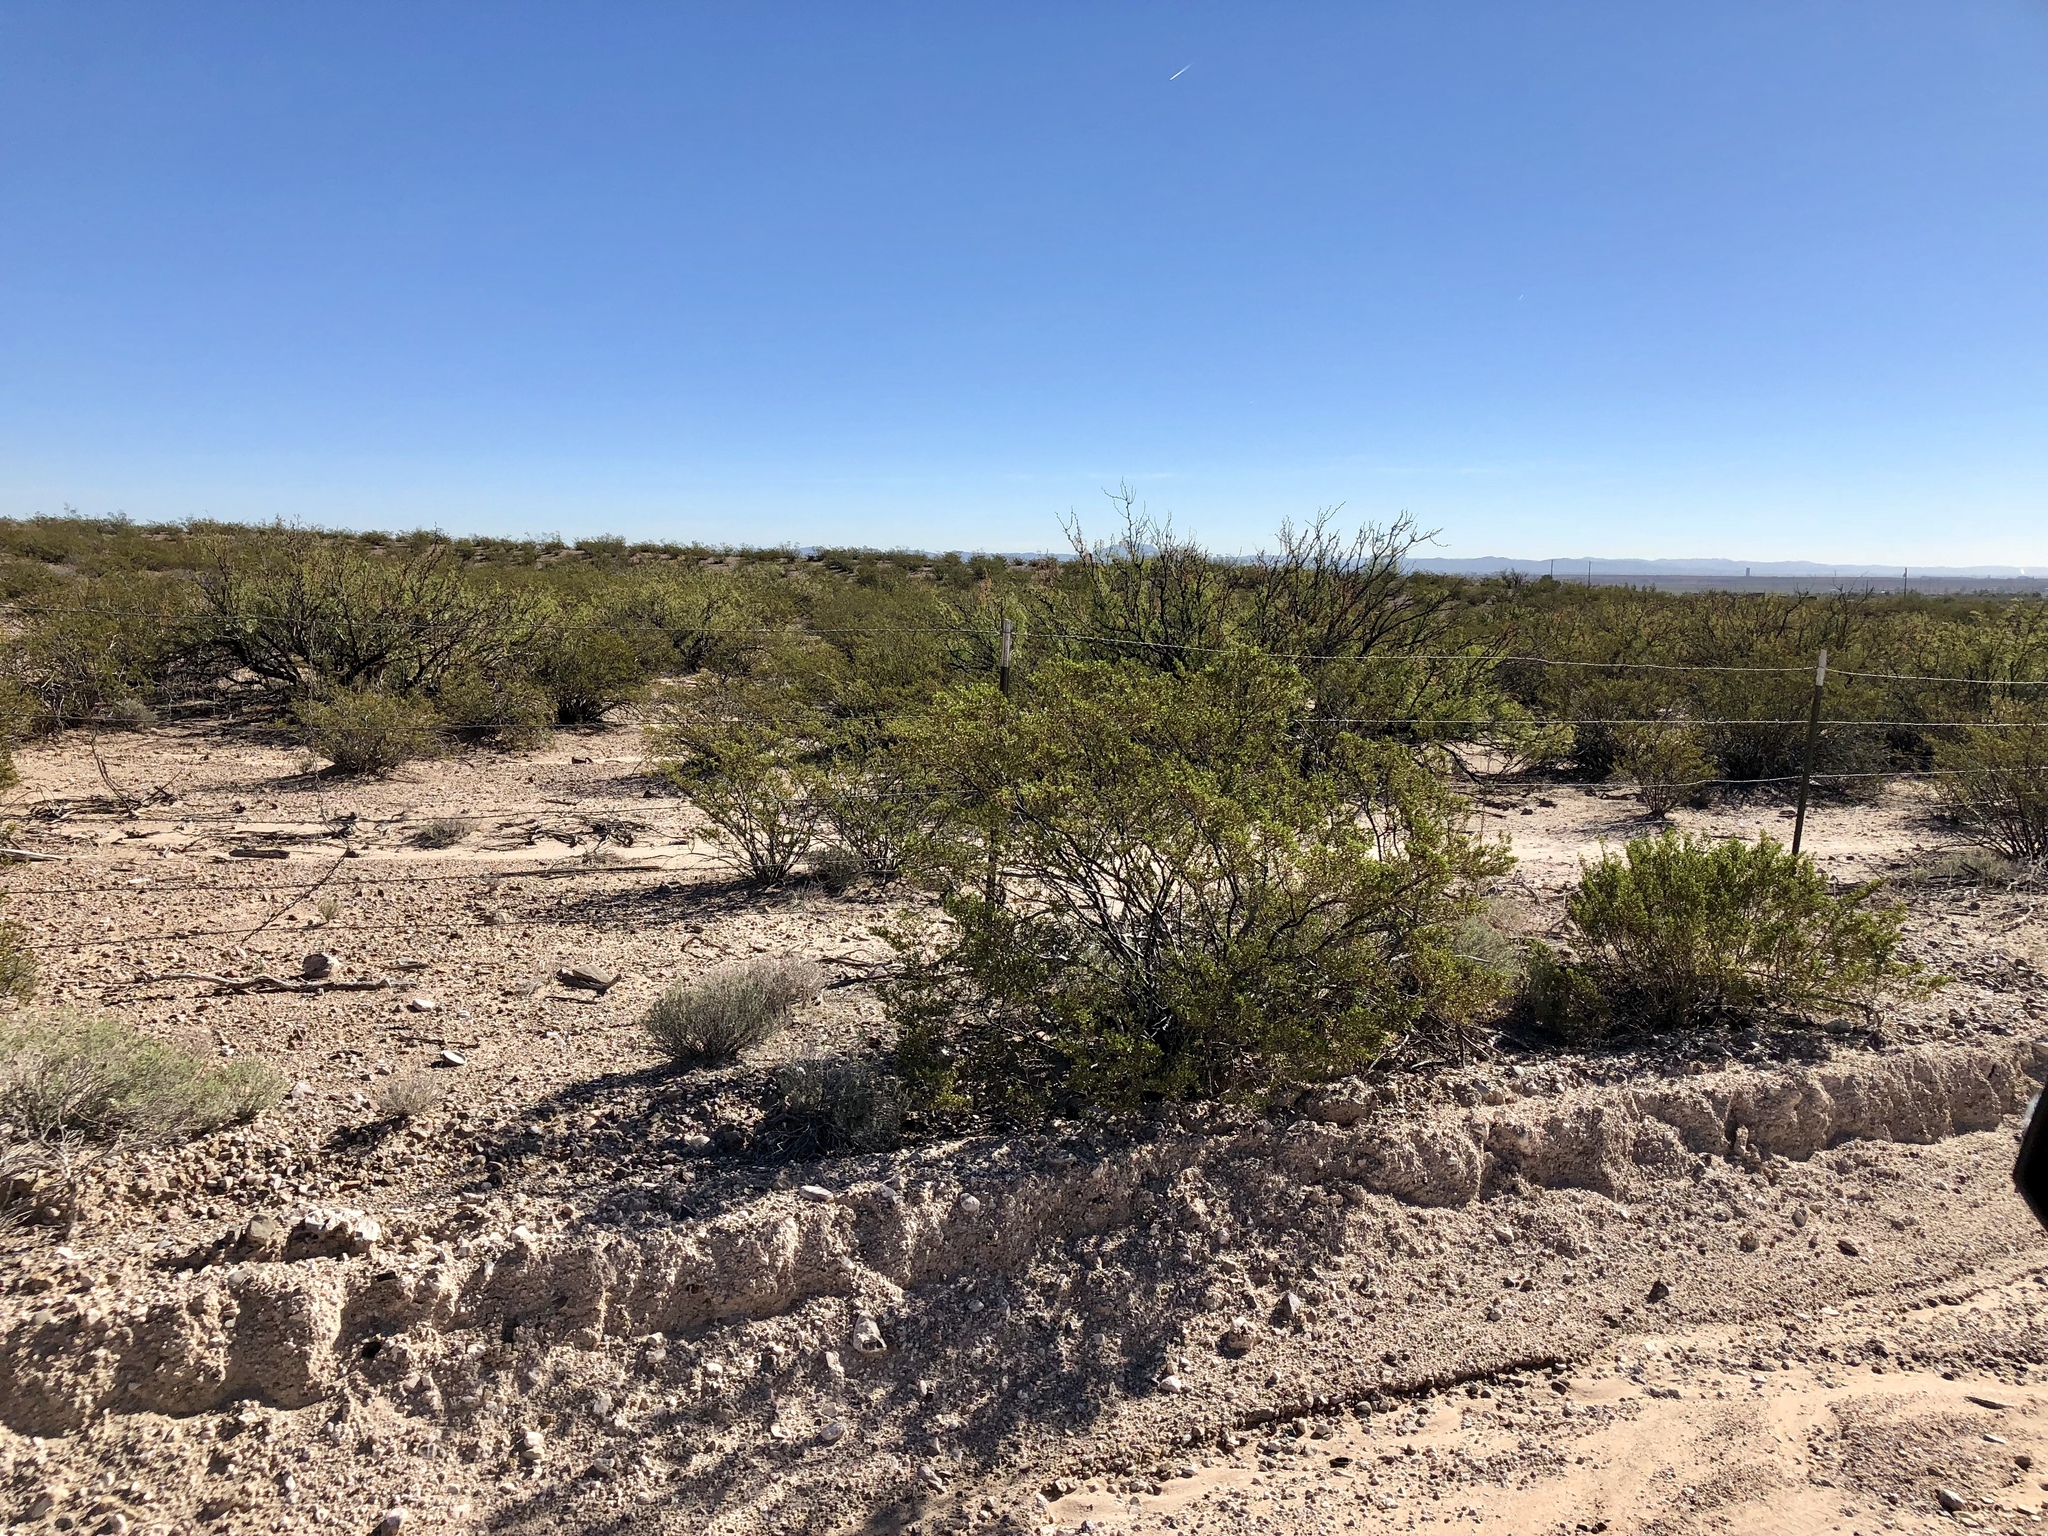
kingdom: Plantae
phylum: Tracheophyta
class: Magnoliopsida
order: Zygophyllales
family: Zygophyllaceae
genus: Larrea
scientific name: Larrea tridentata
